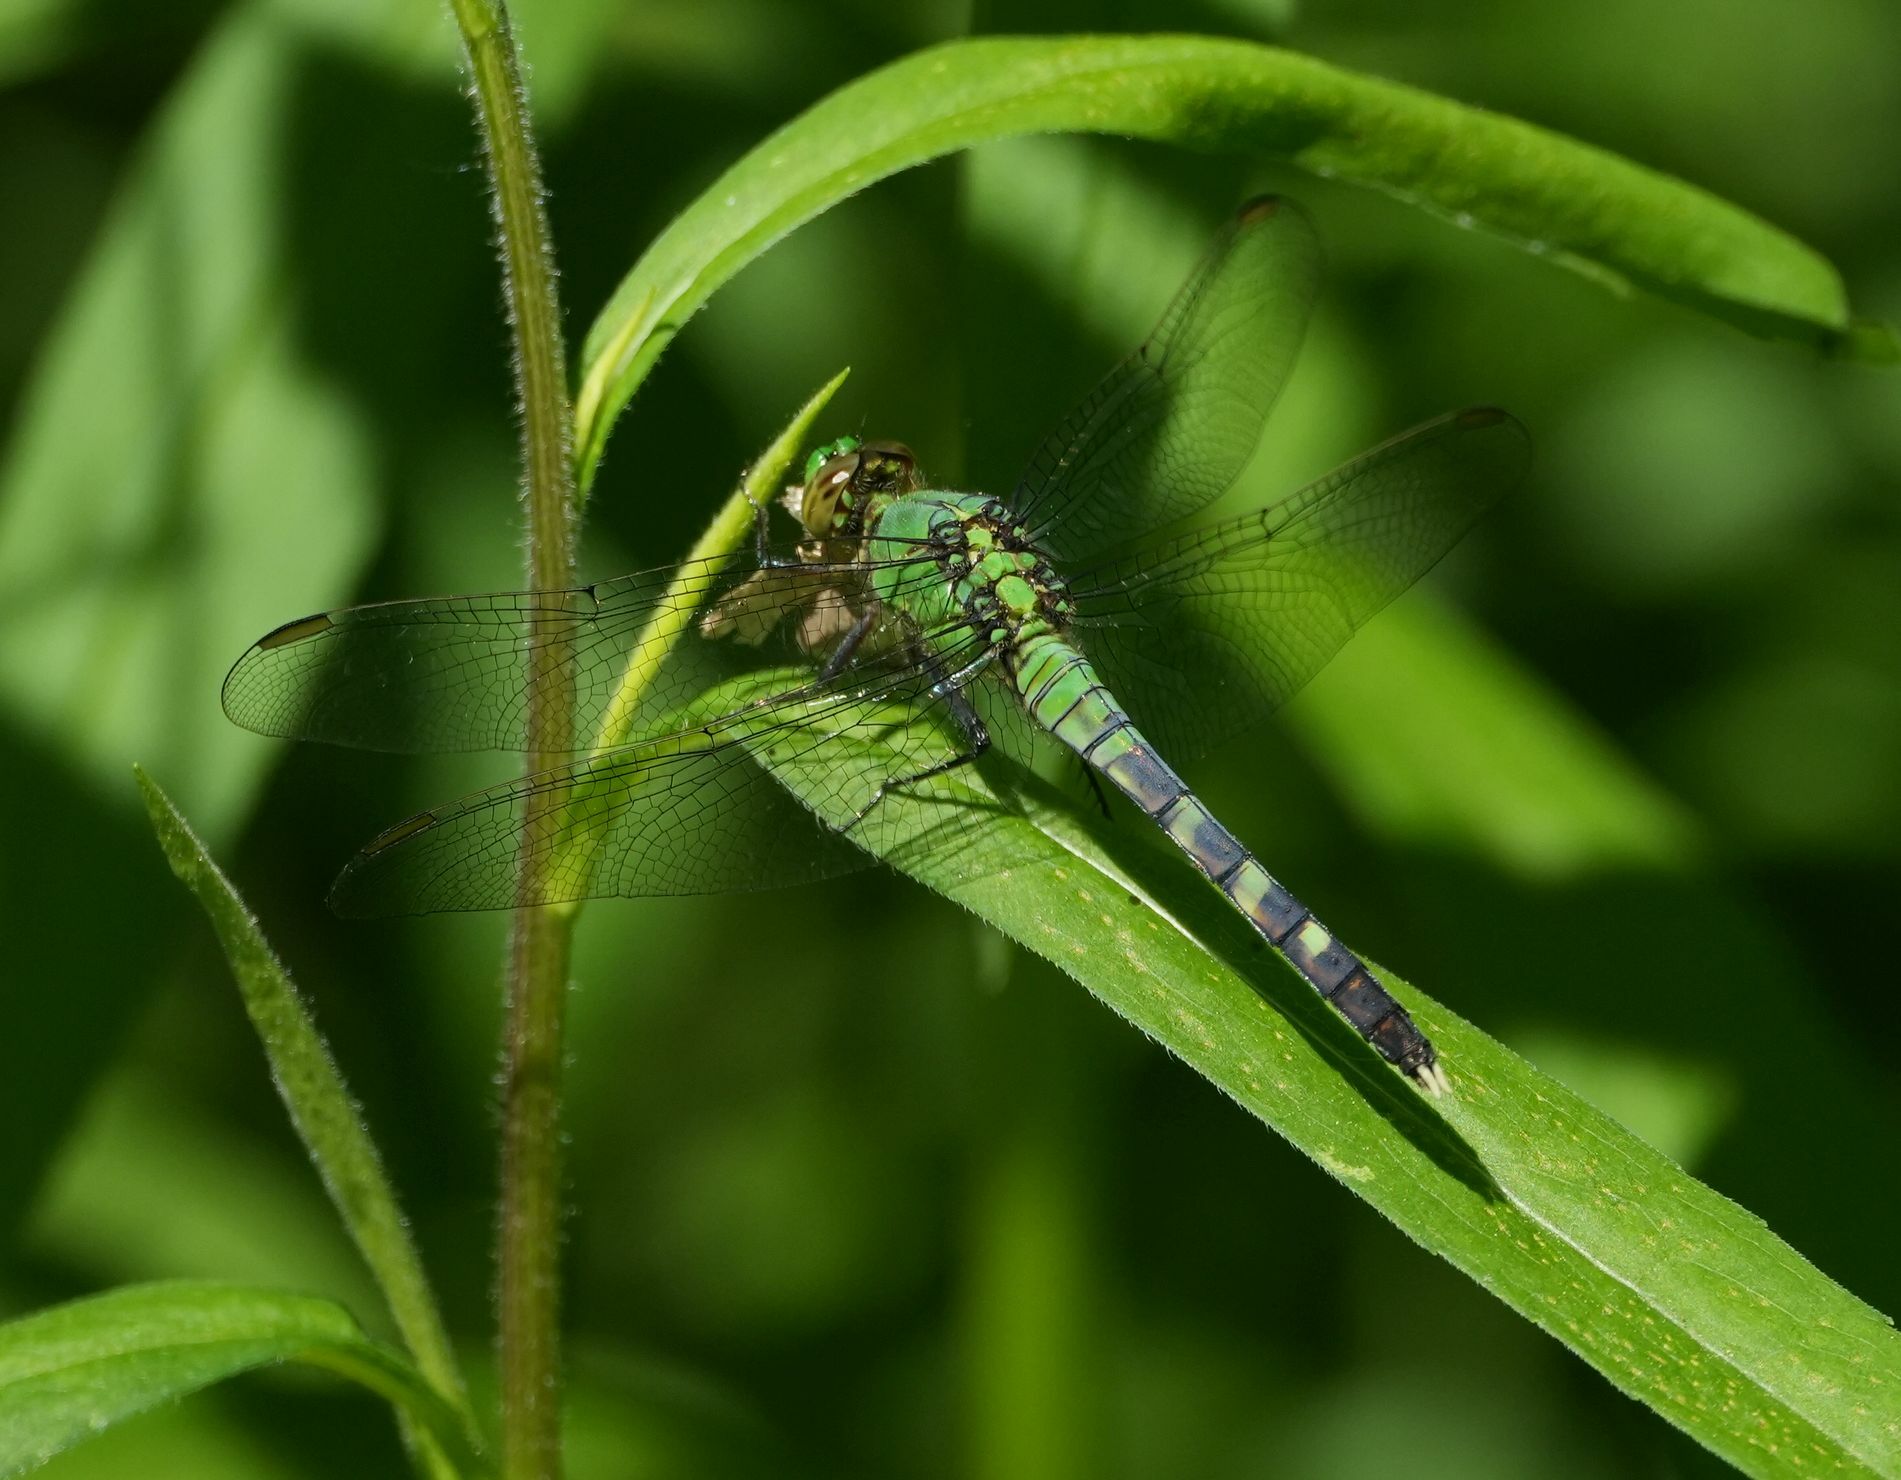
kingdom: Animalia
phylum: Arthropoda
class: Insecta
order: Odonata
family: Libellulidae
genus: Erythemis
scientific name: Erythemis simplicicollis
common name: Eastern pondhawk
